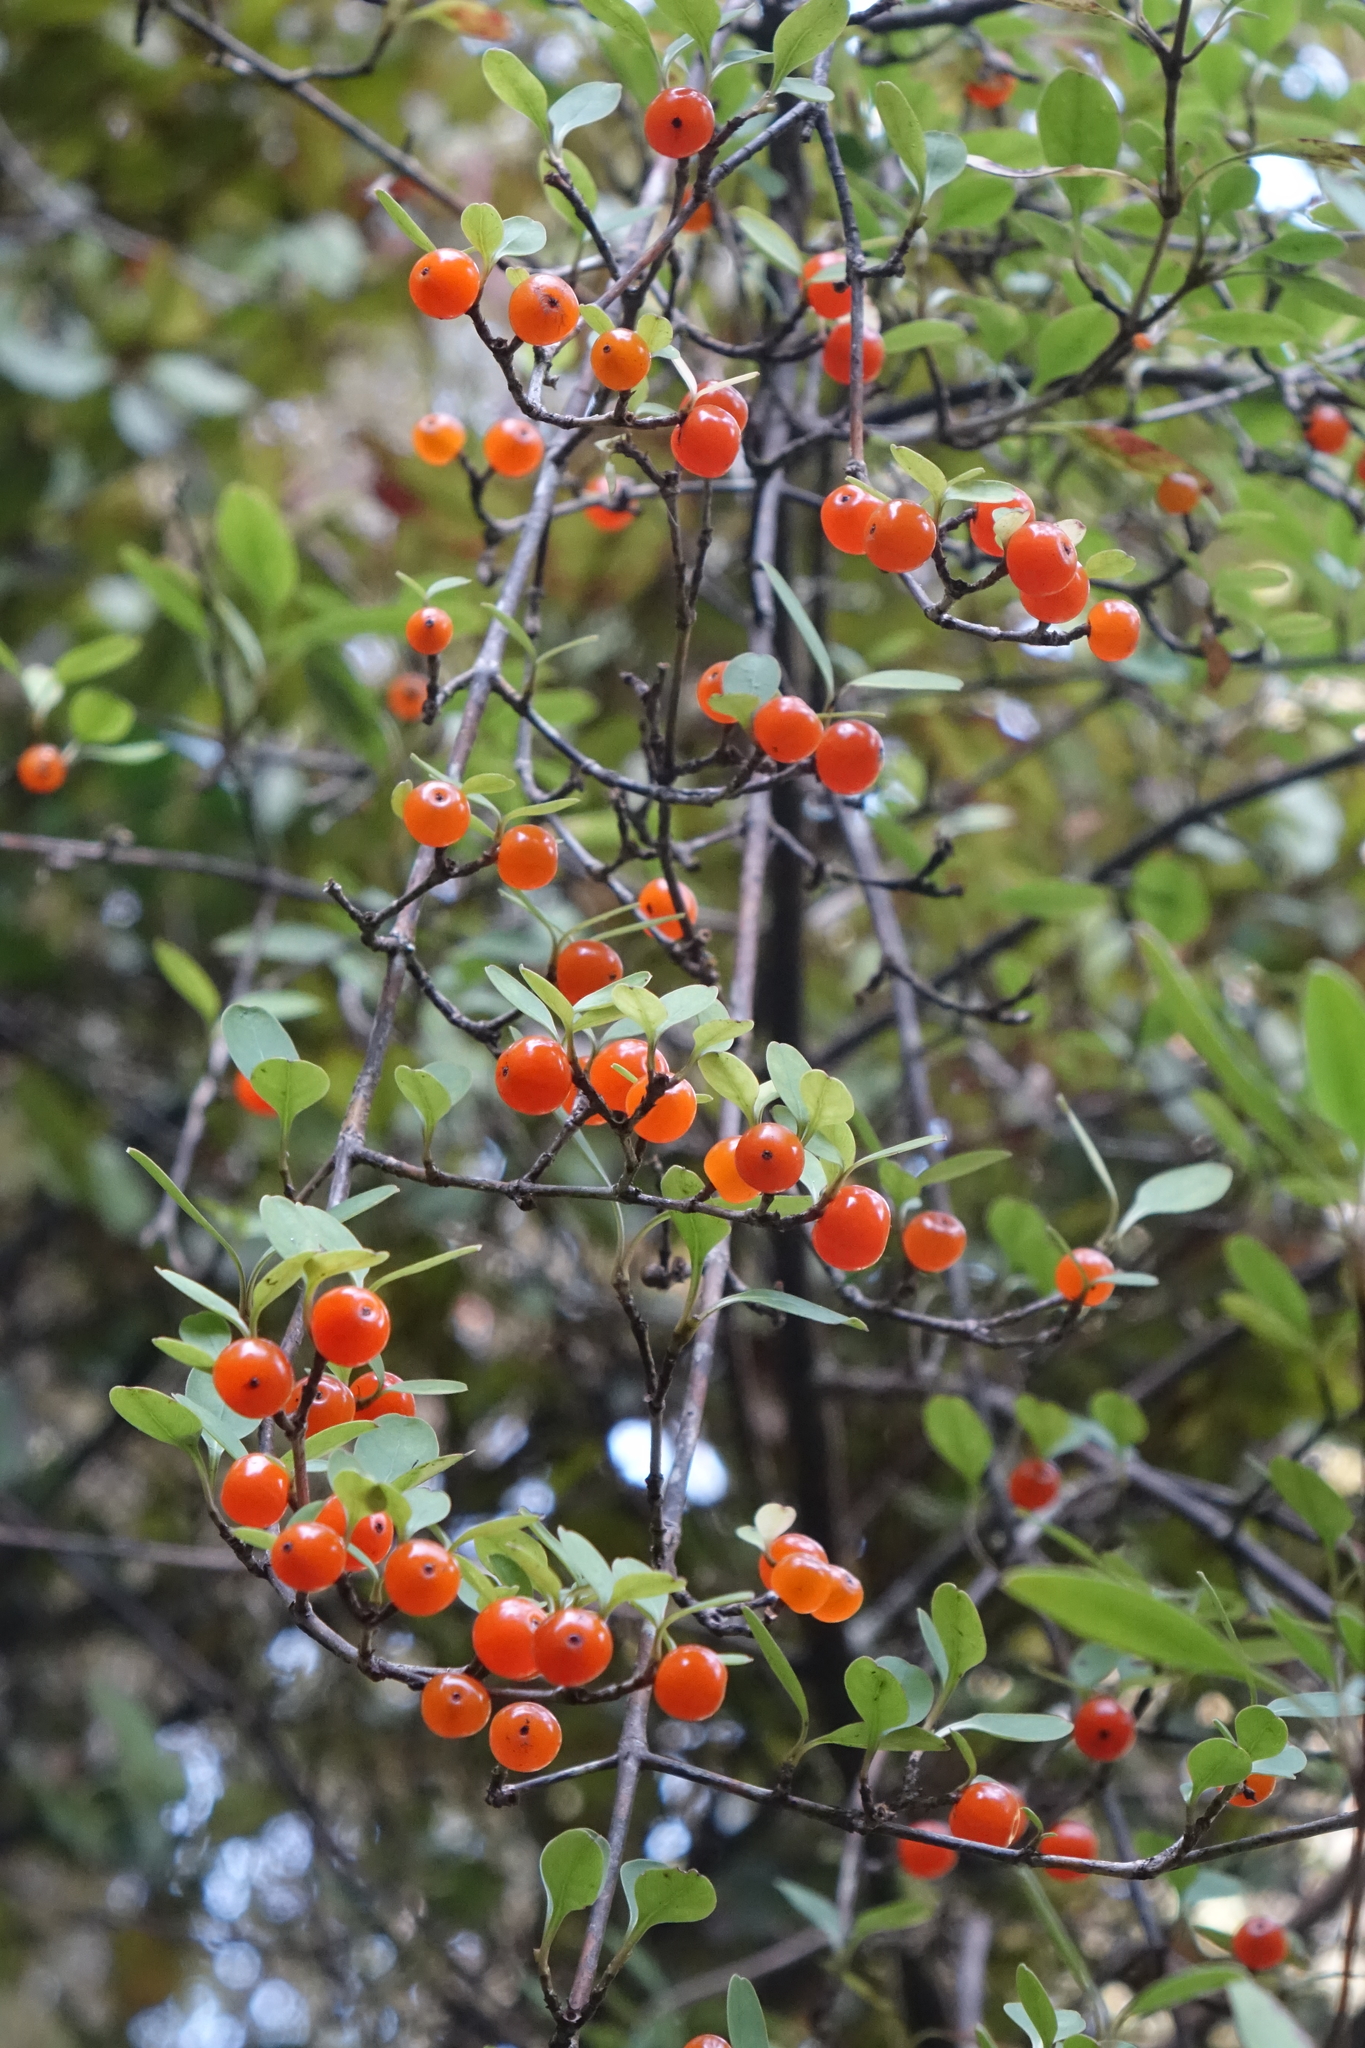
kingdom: Plantae
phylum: Tracheophyta
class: Magnoliopsida
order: Gentianales
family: Rubiaceae
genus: Coprosma
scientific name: Coprosma foetidissima
